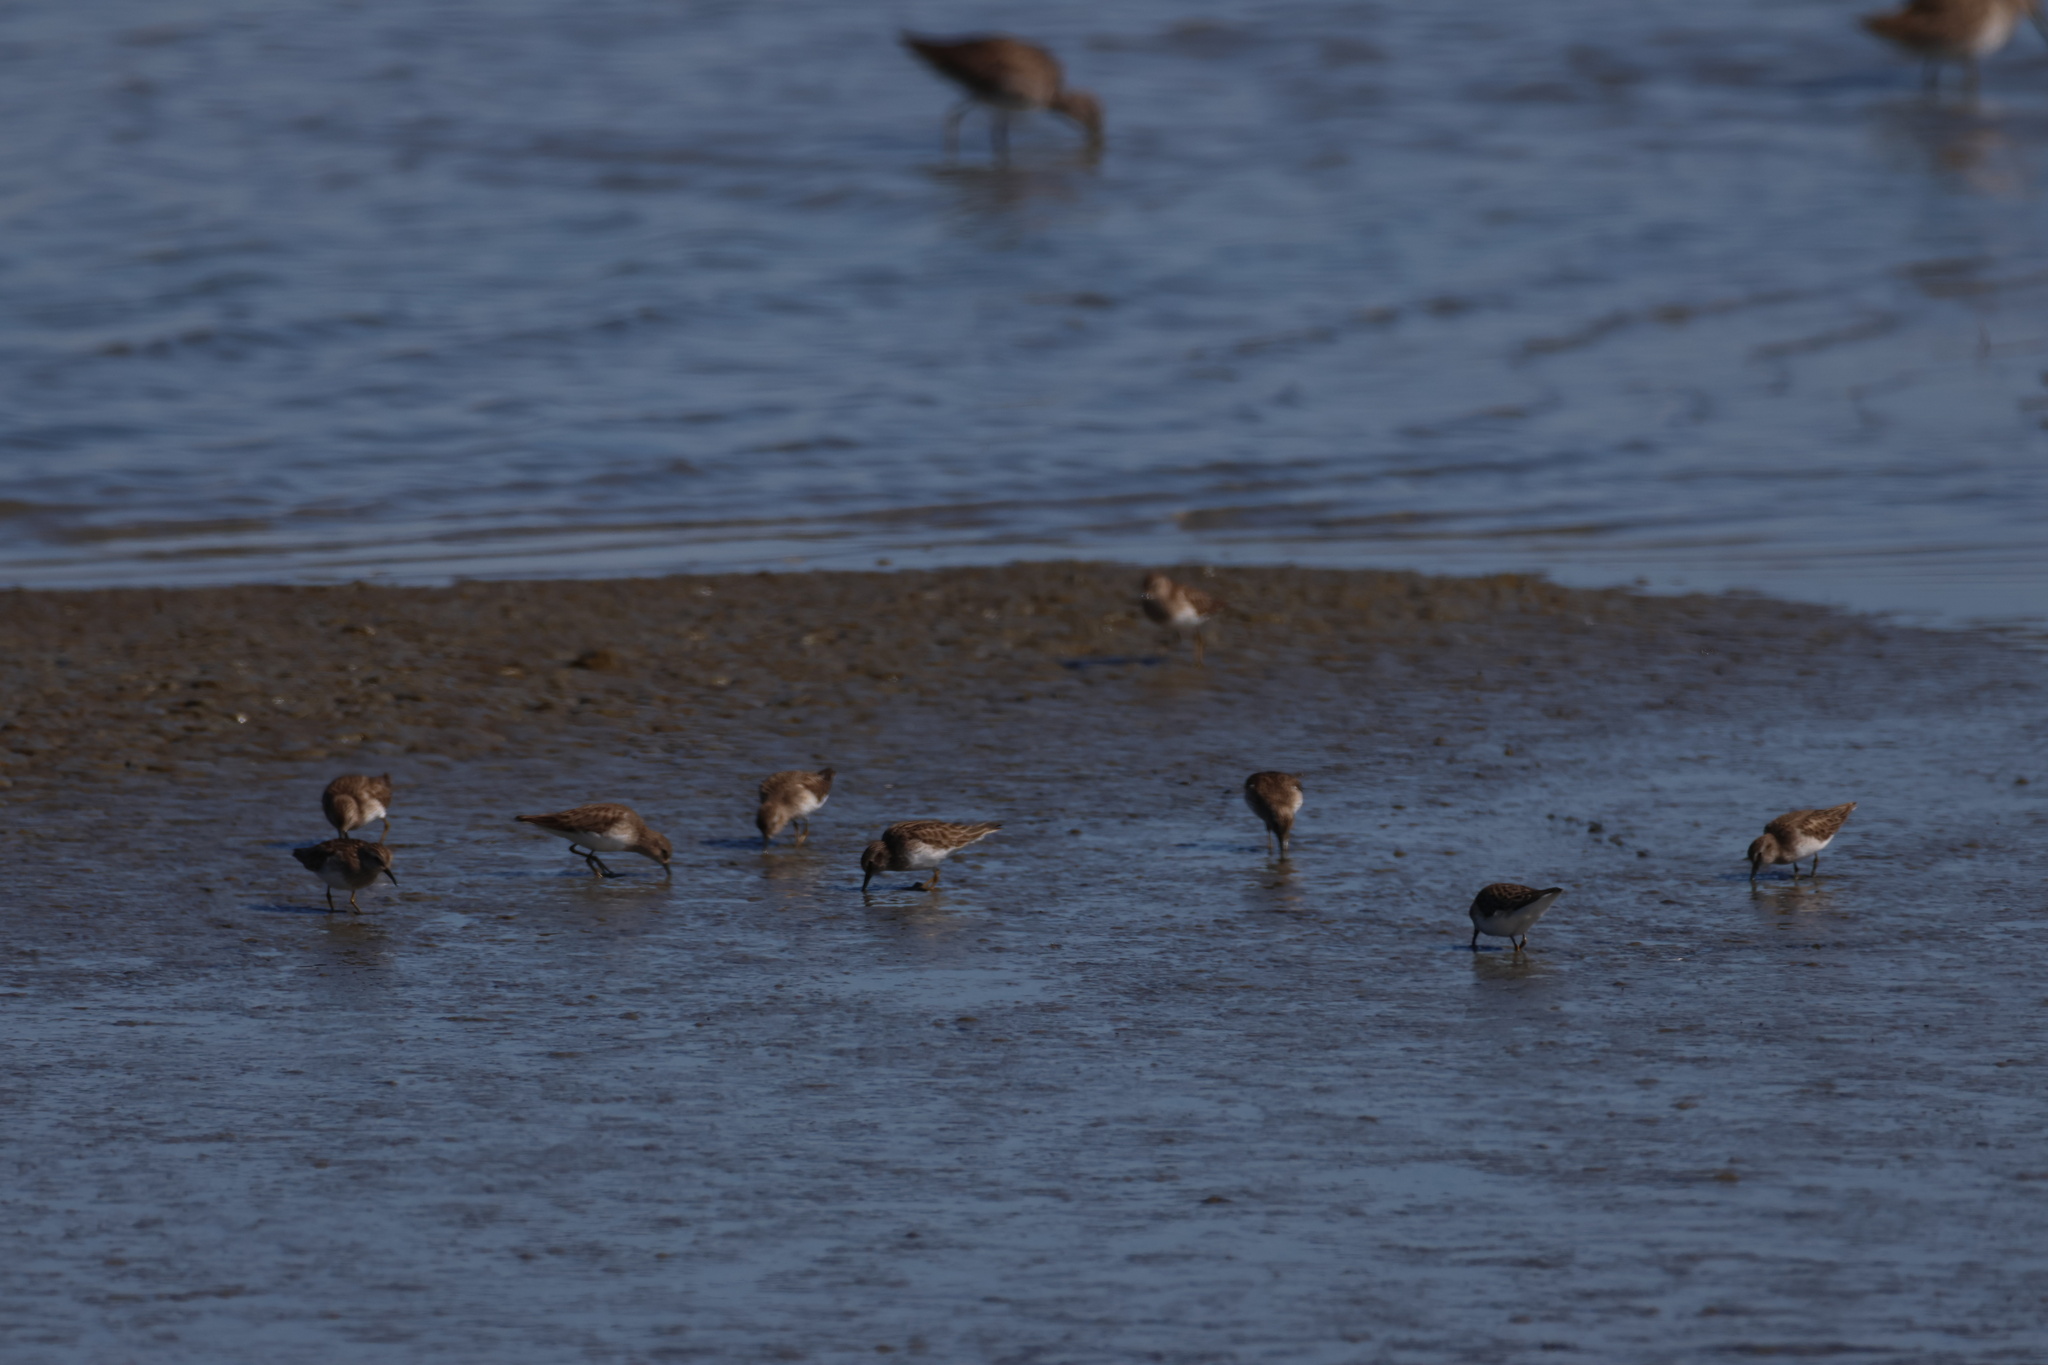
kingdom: Animalia
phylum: Chordata
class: Aves
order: Charadriiformes
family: Scolopacidae
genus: Calidris
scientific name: Calidris minutilla
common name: Least sandpiper
